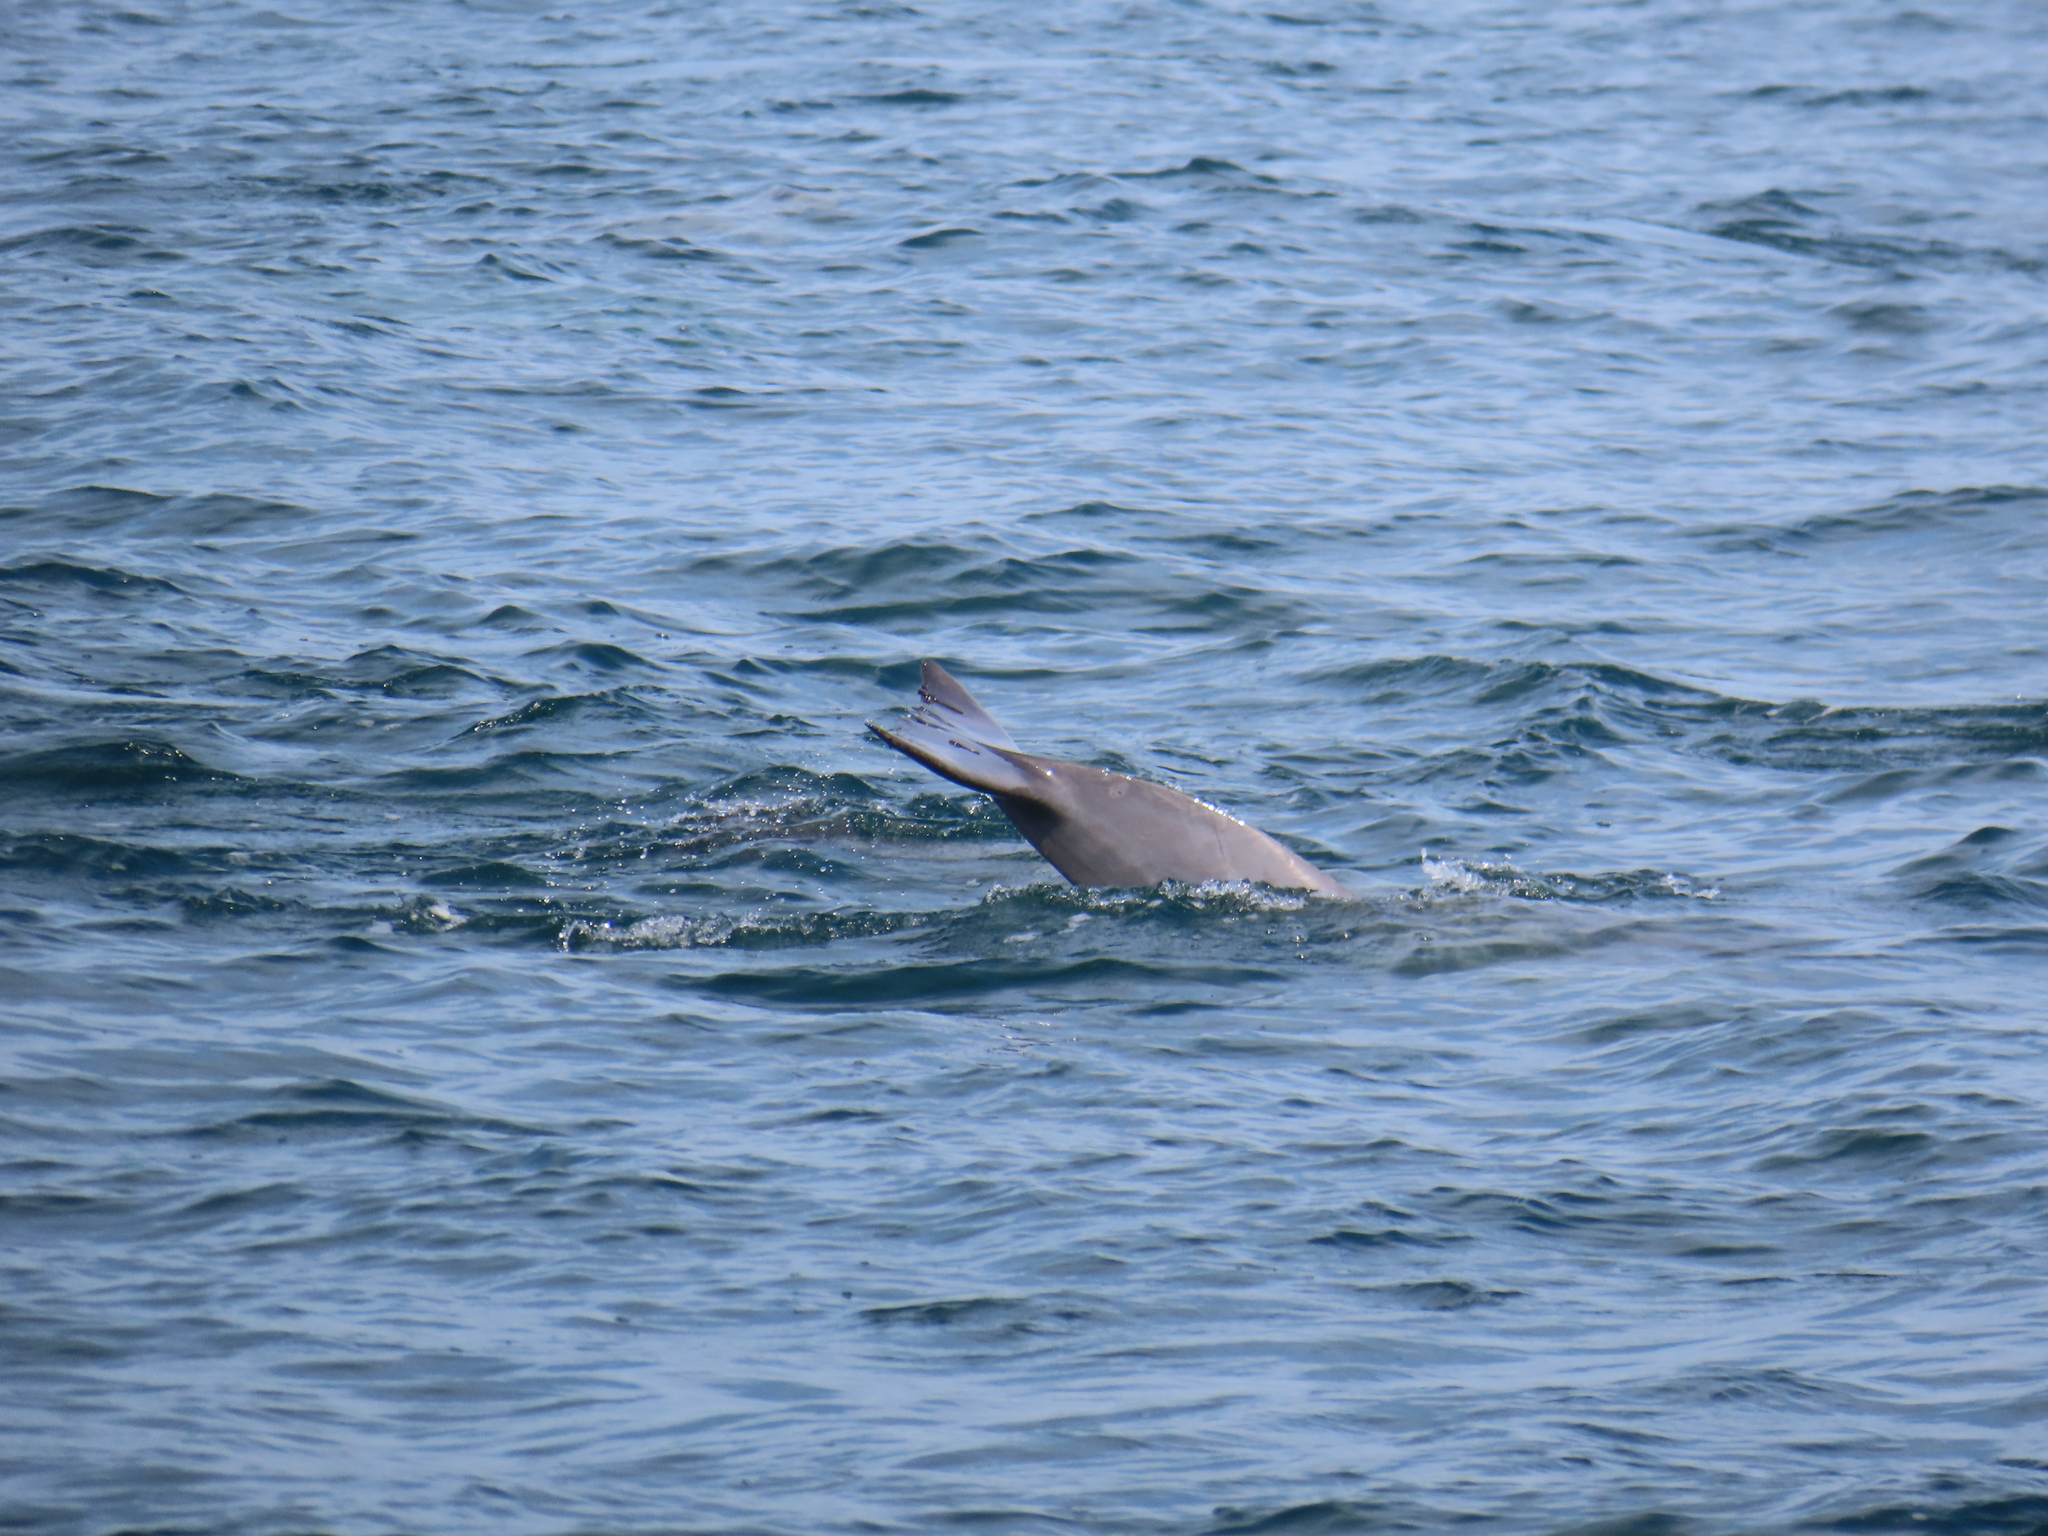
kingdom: Animalia
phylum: Chordata
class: Mammalia
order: Cetacea
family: Delphinidae
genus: Tursiops
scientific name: Tursiops truncatus
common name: Bottlenose dolphin
